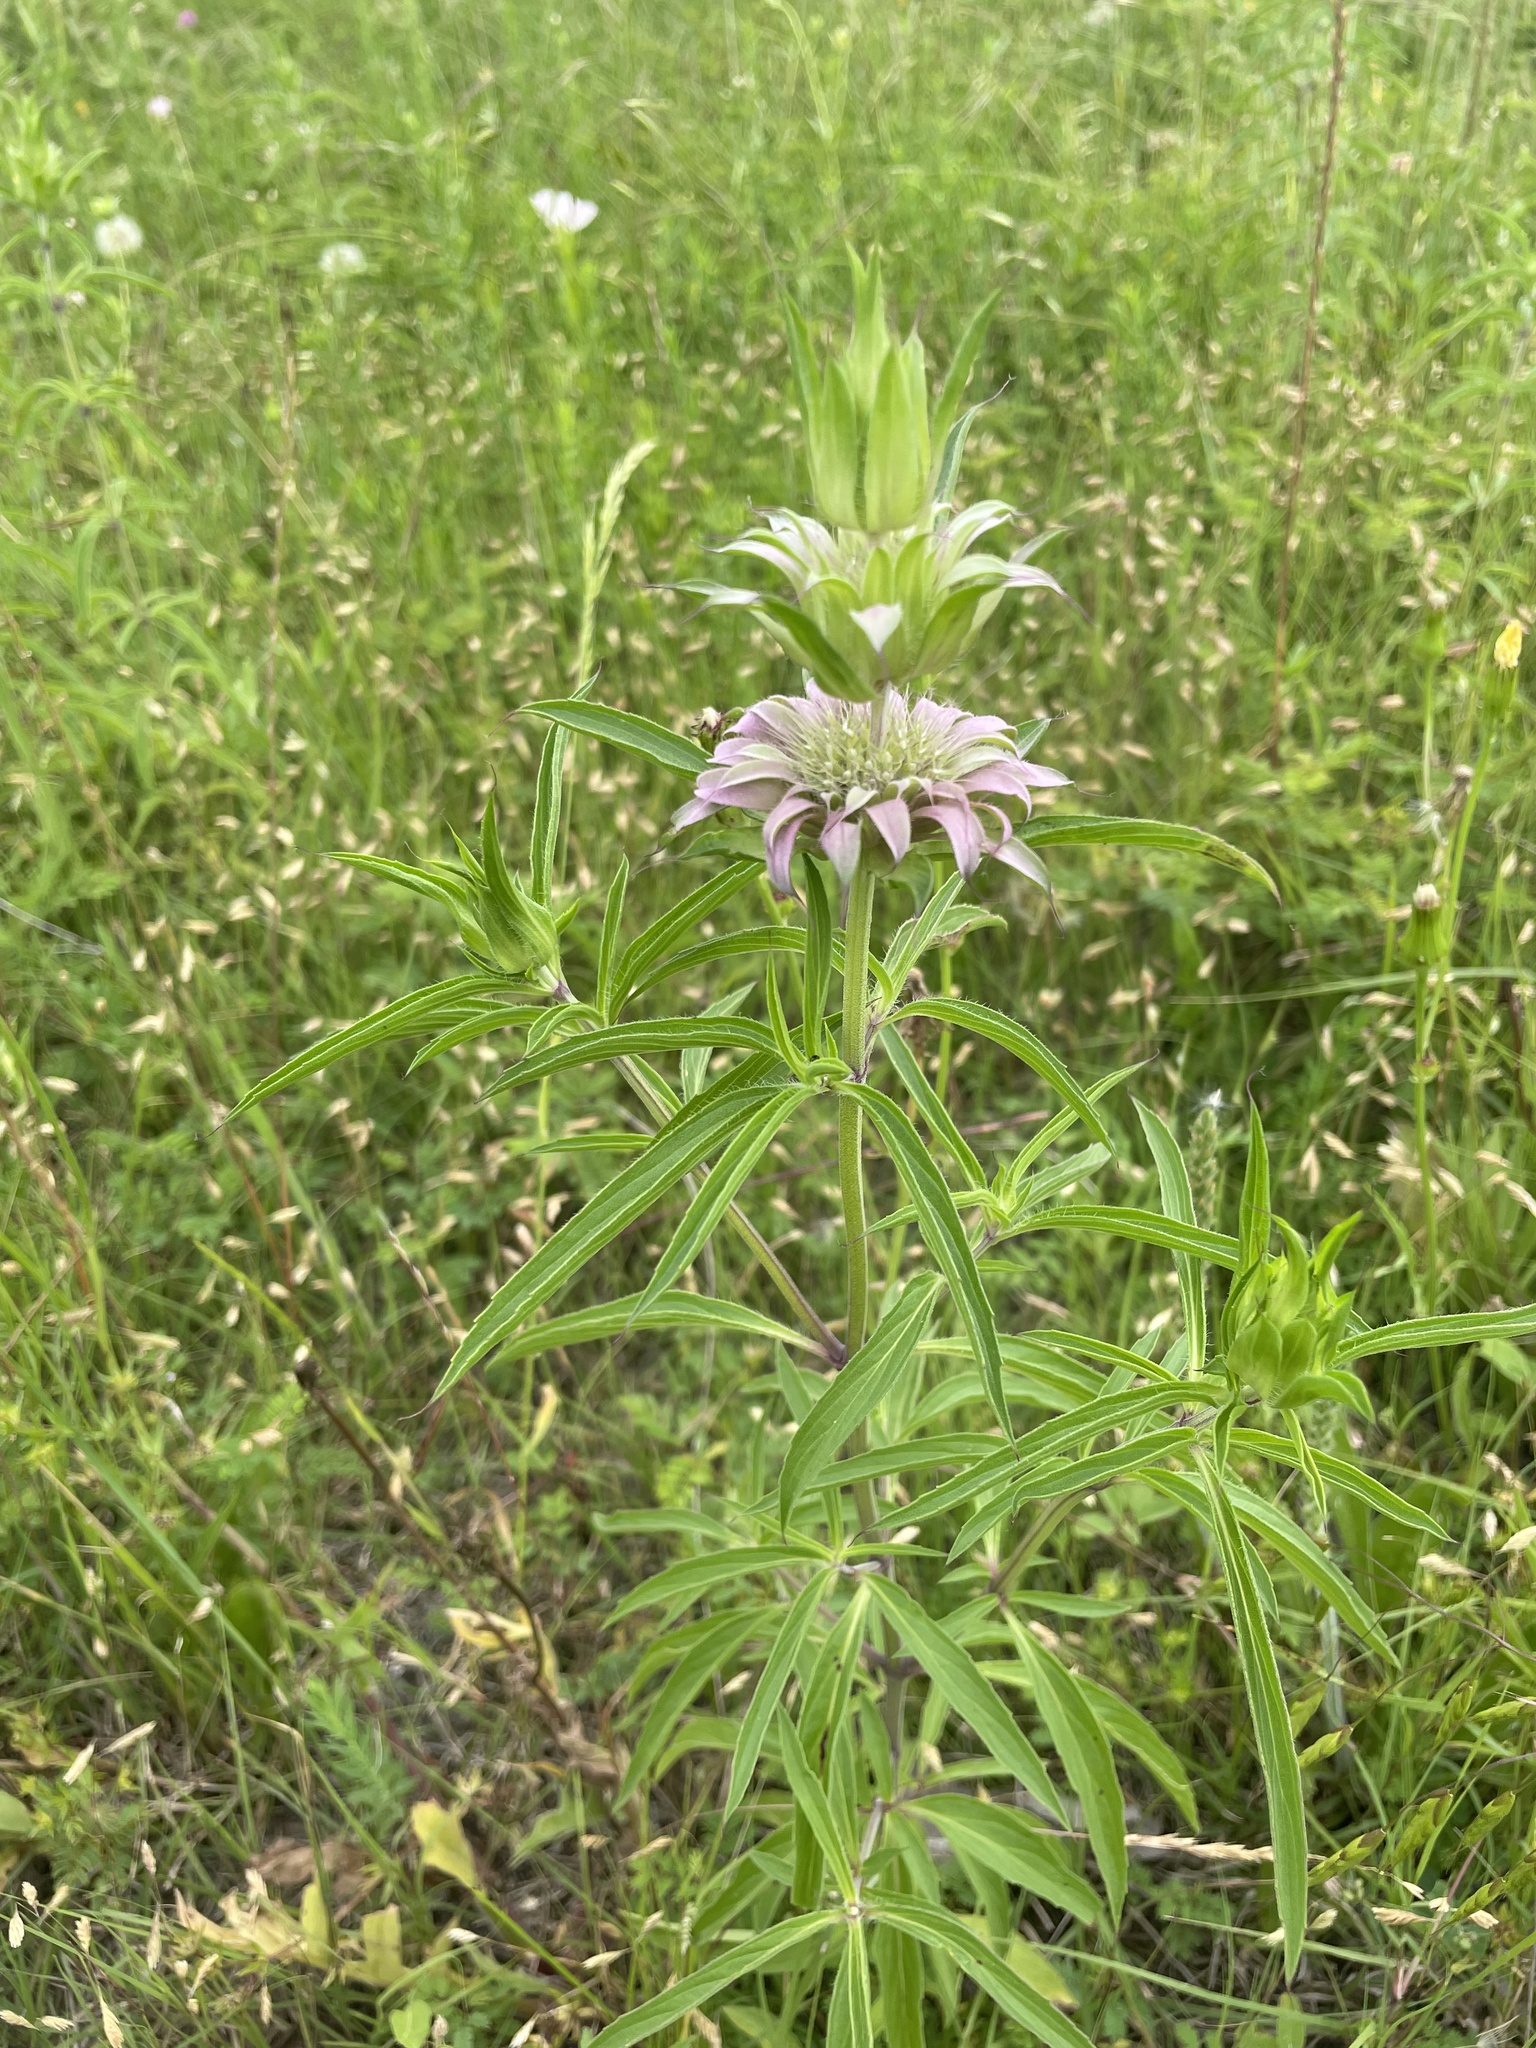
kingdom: Plantae
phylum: Tracheophyta
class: Magnoliopsida
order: Lamiales
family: Lamiaceae
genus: Monarda
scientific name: Monarda citriodora
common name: Lemon beebalm
